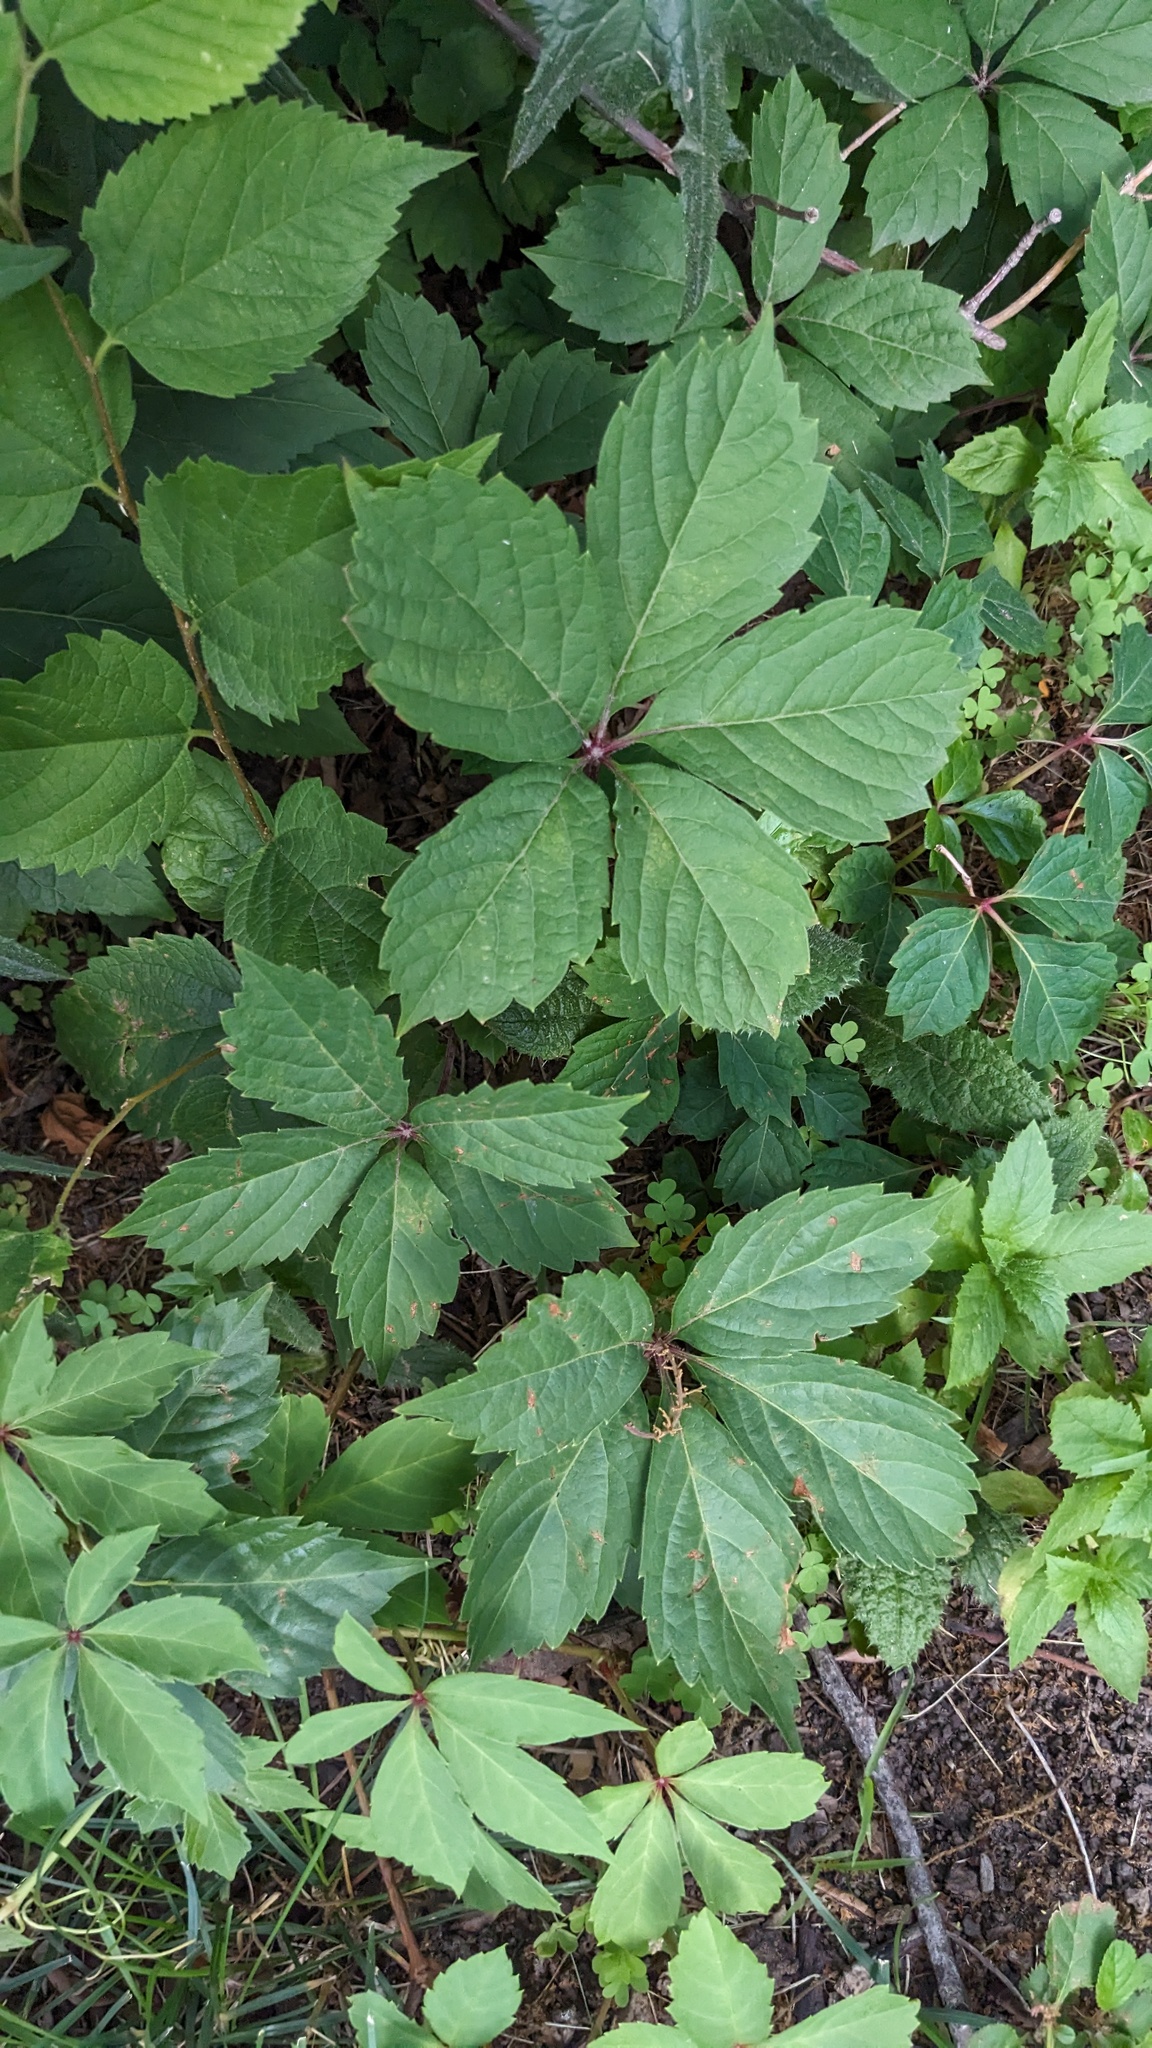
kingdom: Plantae
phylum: Tracheophyta
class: Magnoliopsida
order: Vitales
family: Vitaceae
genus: Parthenocissus
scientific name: Parthenocissus inserta
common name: False virginia-creeper
